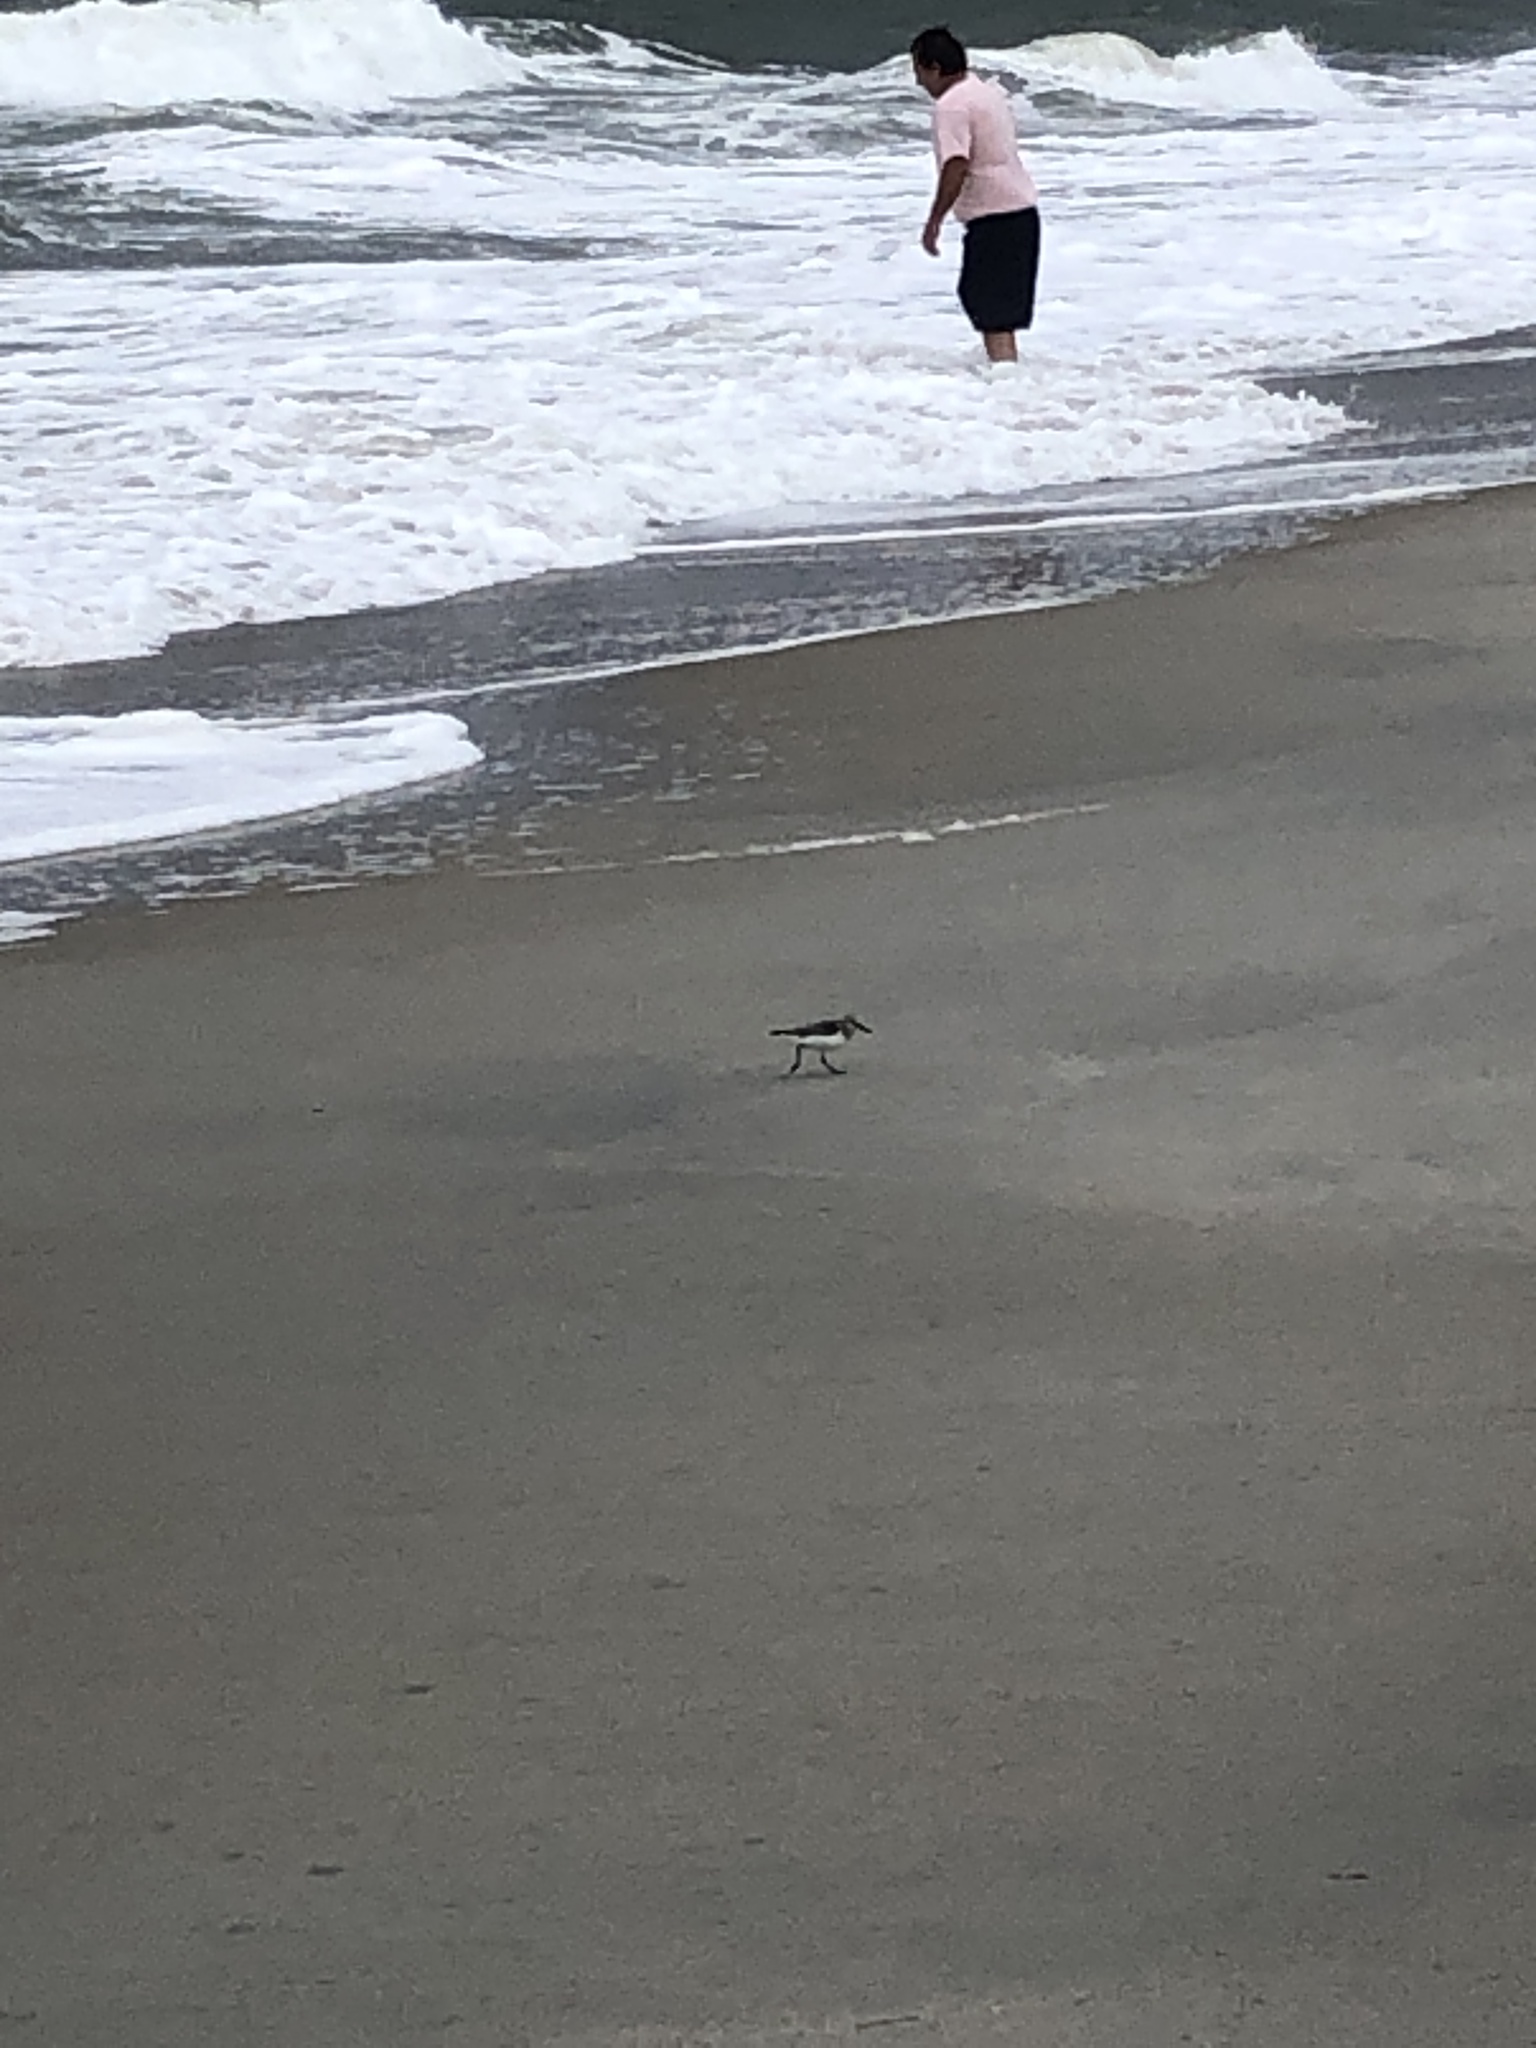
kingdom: Animalia
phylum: Chordata
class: Aves
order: Charadriiformes
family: Scolopacidae
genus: Calidris
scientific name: Calidris alba
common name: Sanderling
